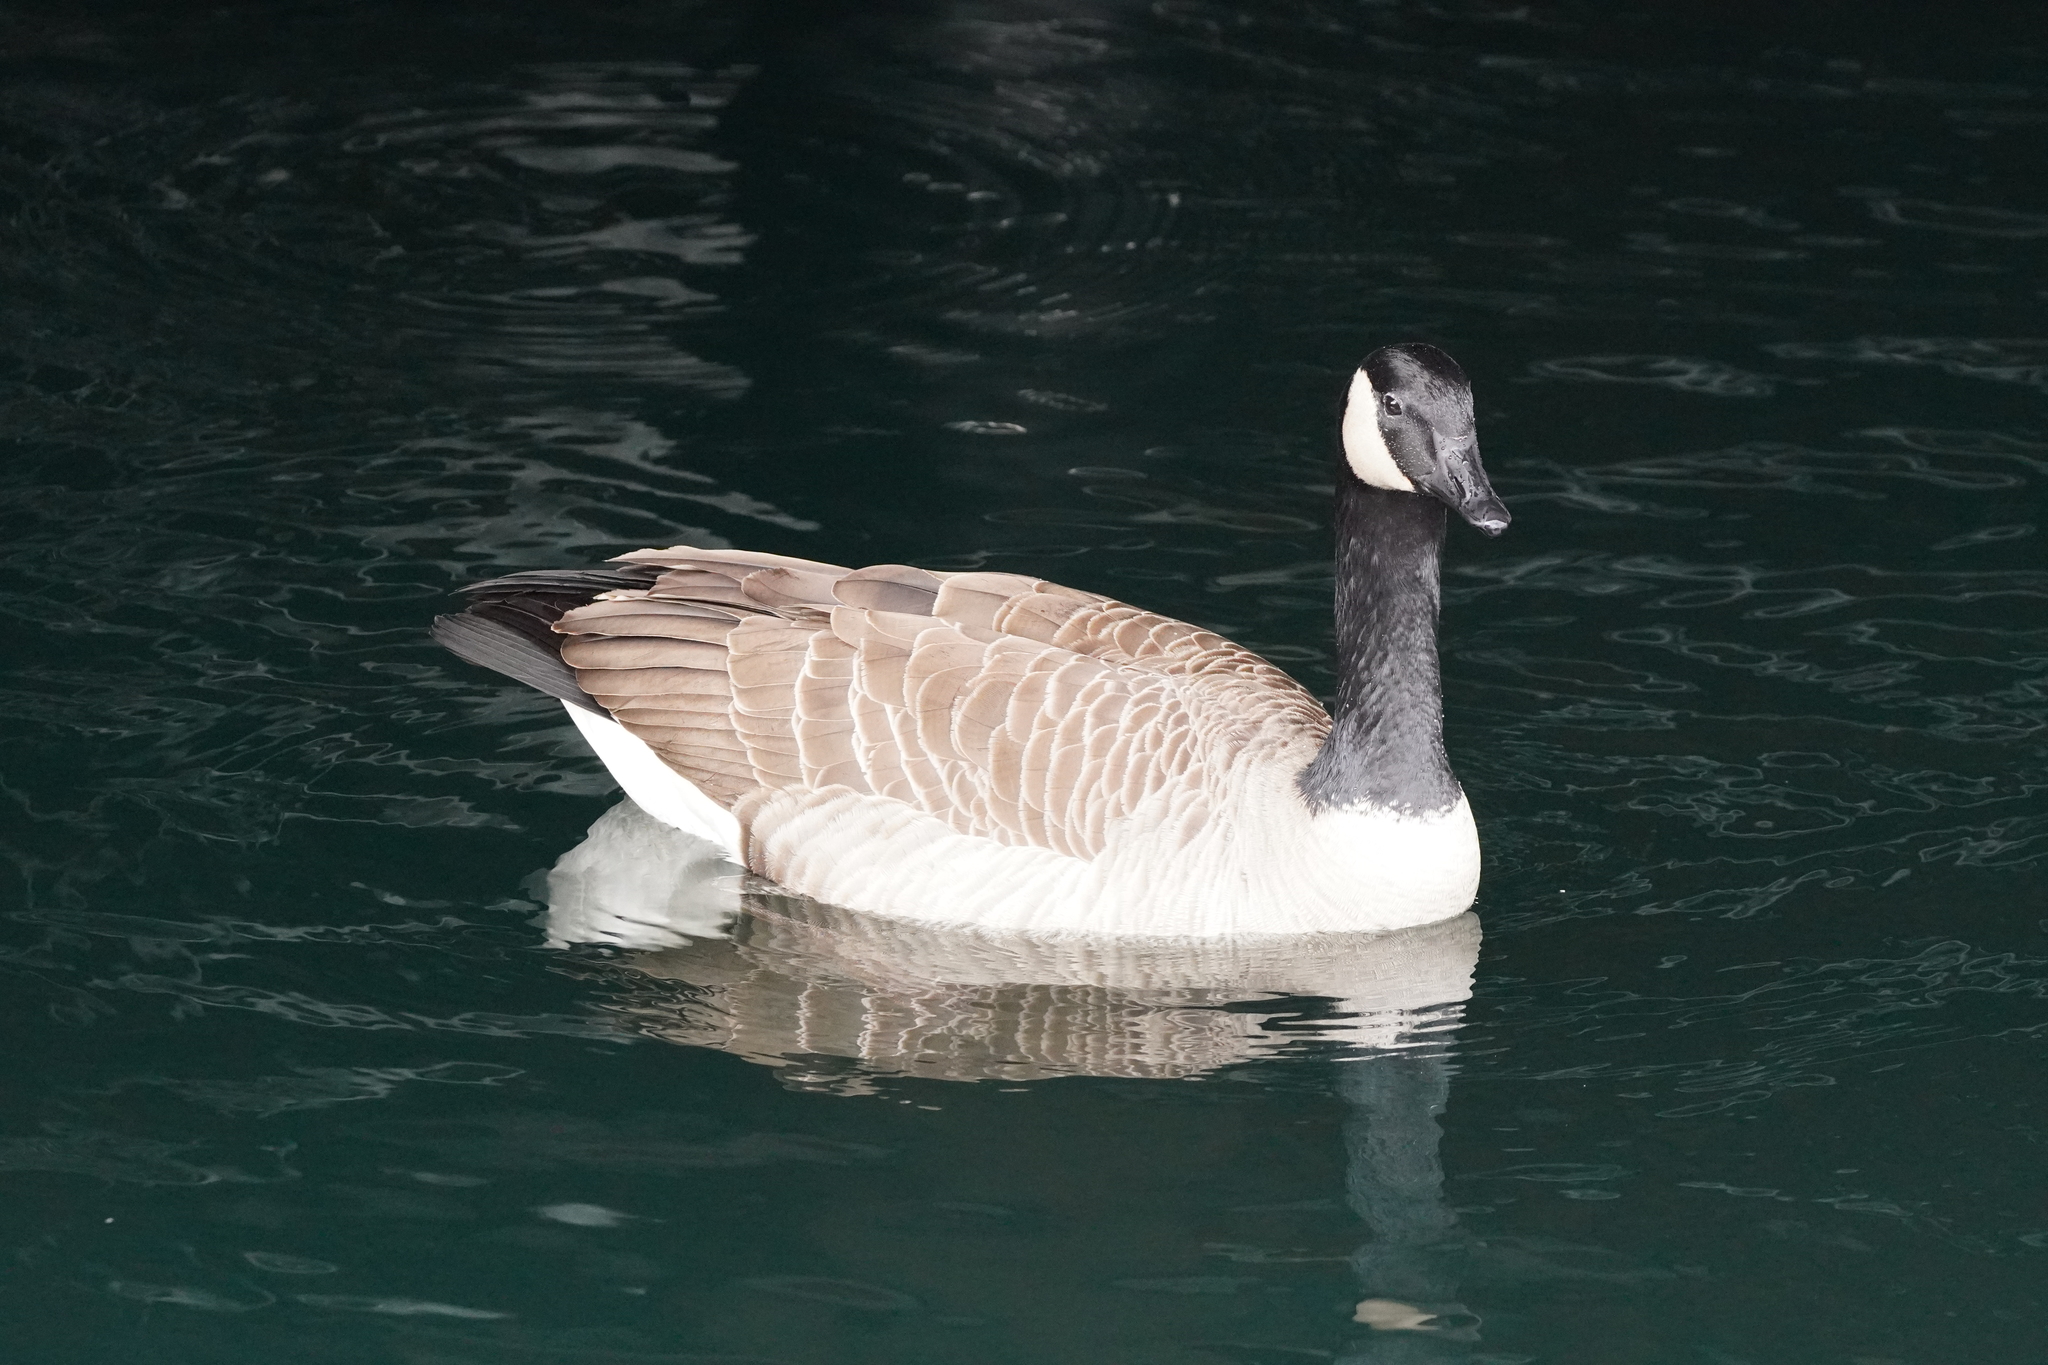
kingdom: Animalia
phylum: Chordata
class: Aves
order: Anseriformes
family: Anatidae
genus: Branta
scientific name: Branta canadensis
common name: Canada goose
